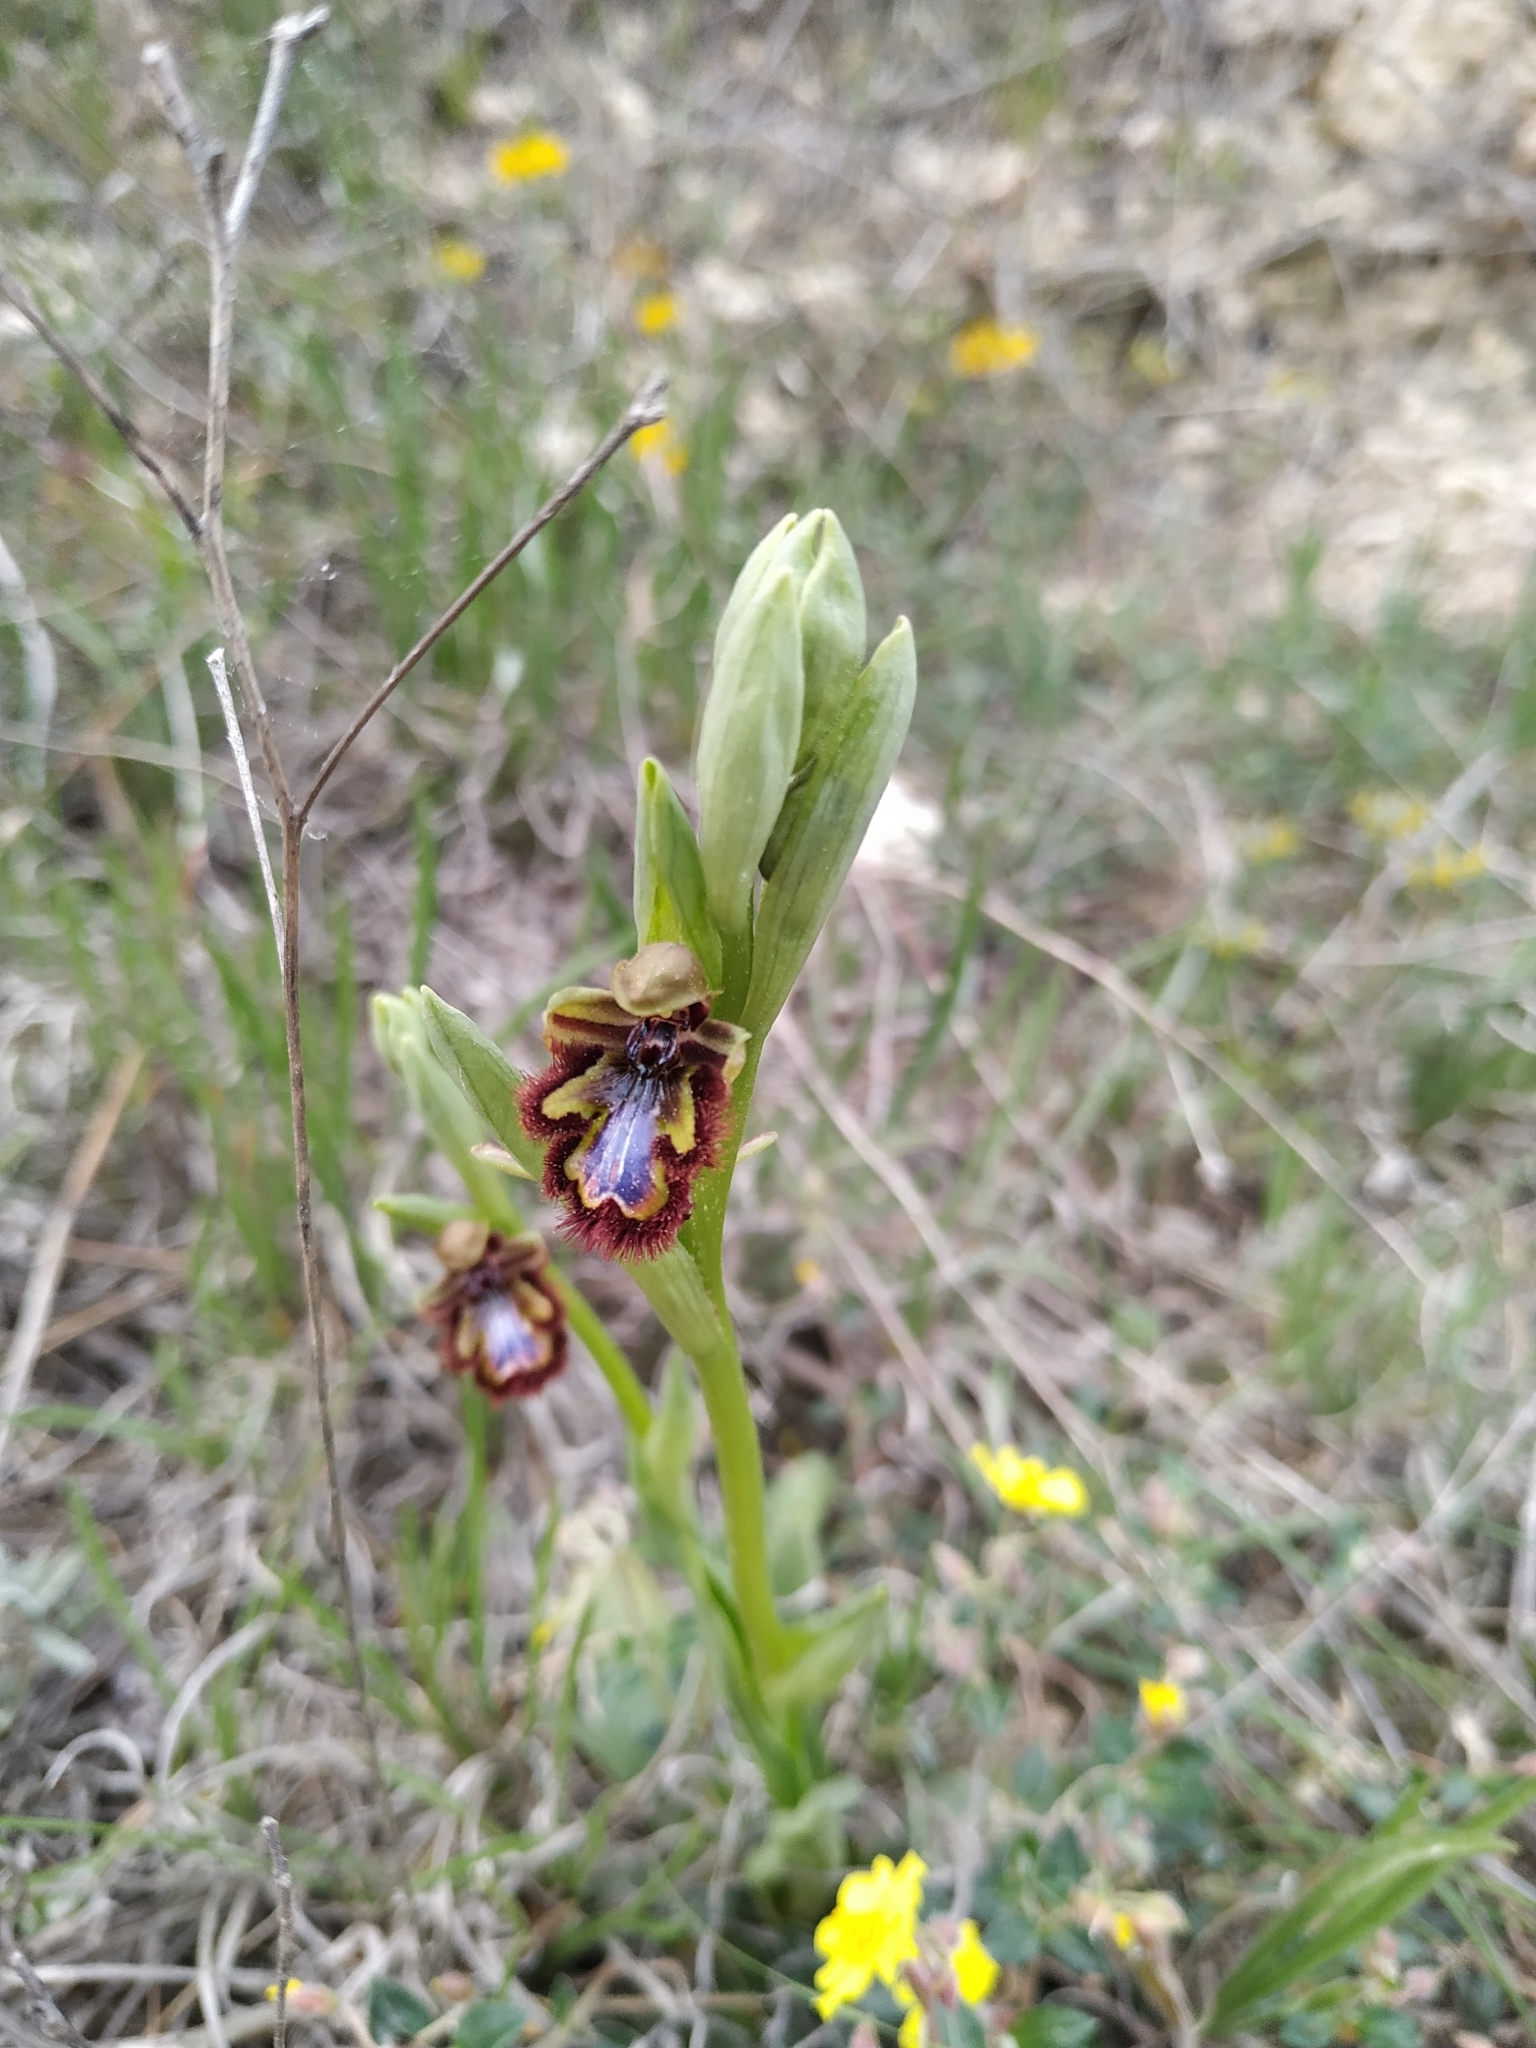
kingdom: Plantae
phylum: Tracheophyta
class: Liliopsida
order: Asparagales
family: Orchidaceae
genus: Ophrys
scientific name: Ophrys speculum
